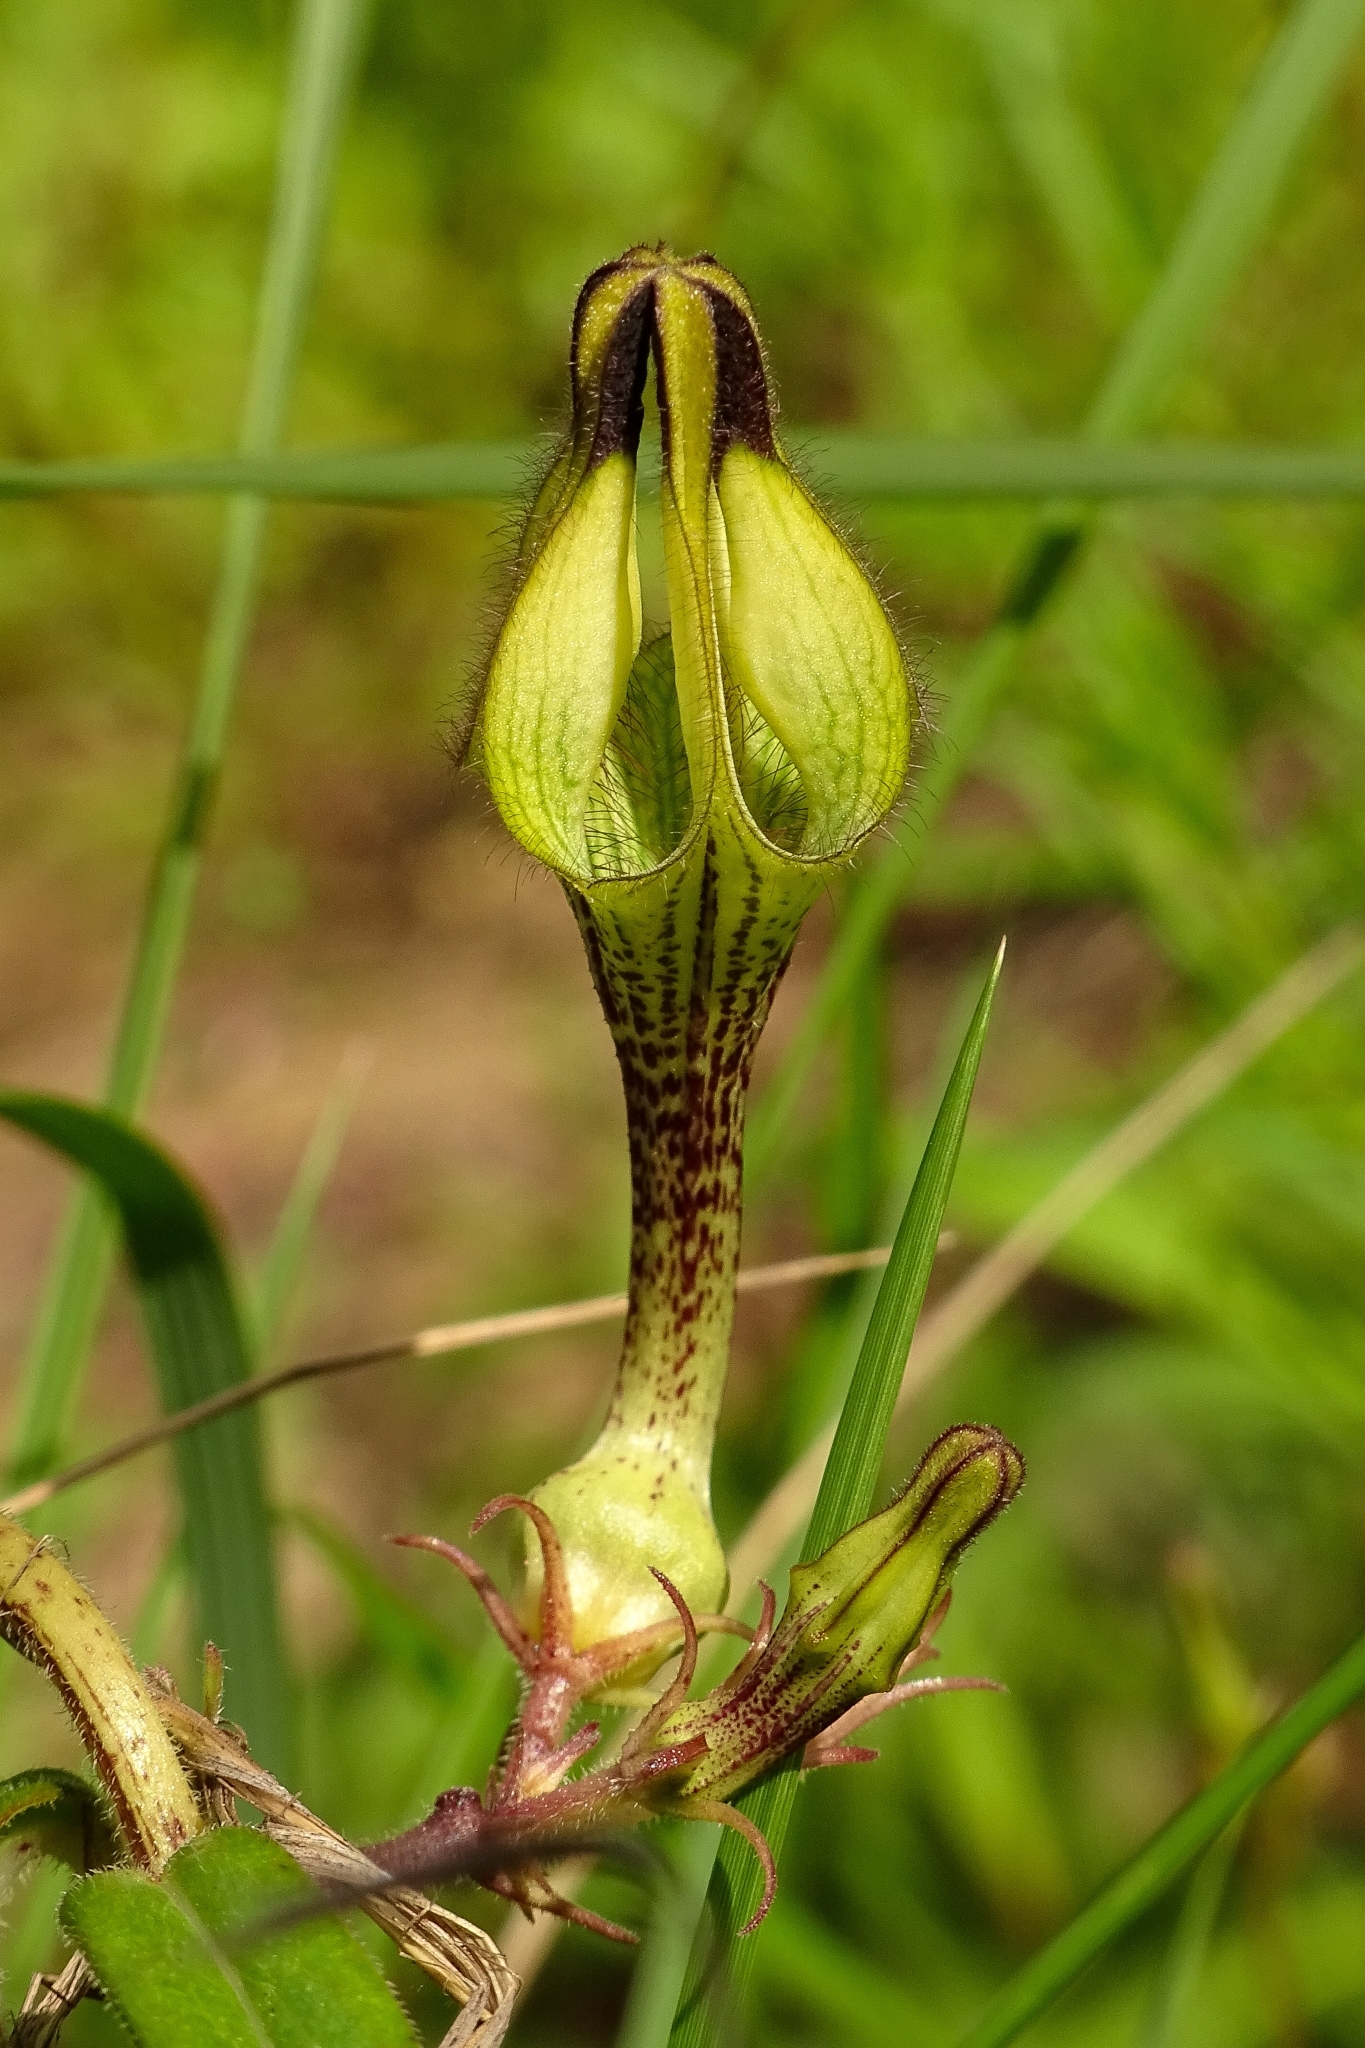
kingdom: Plantae
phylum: Tracheophyta
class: Magnoliopsida
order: Gentianales
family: Apocynaceae
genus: Ceropegia
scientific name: Ceropegia hirsuta
